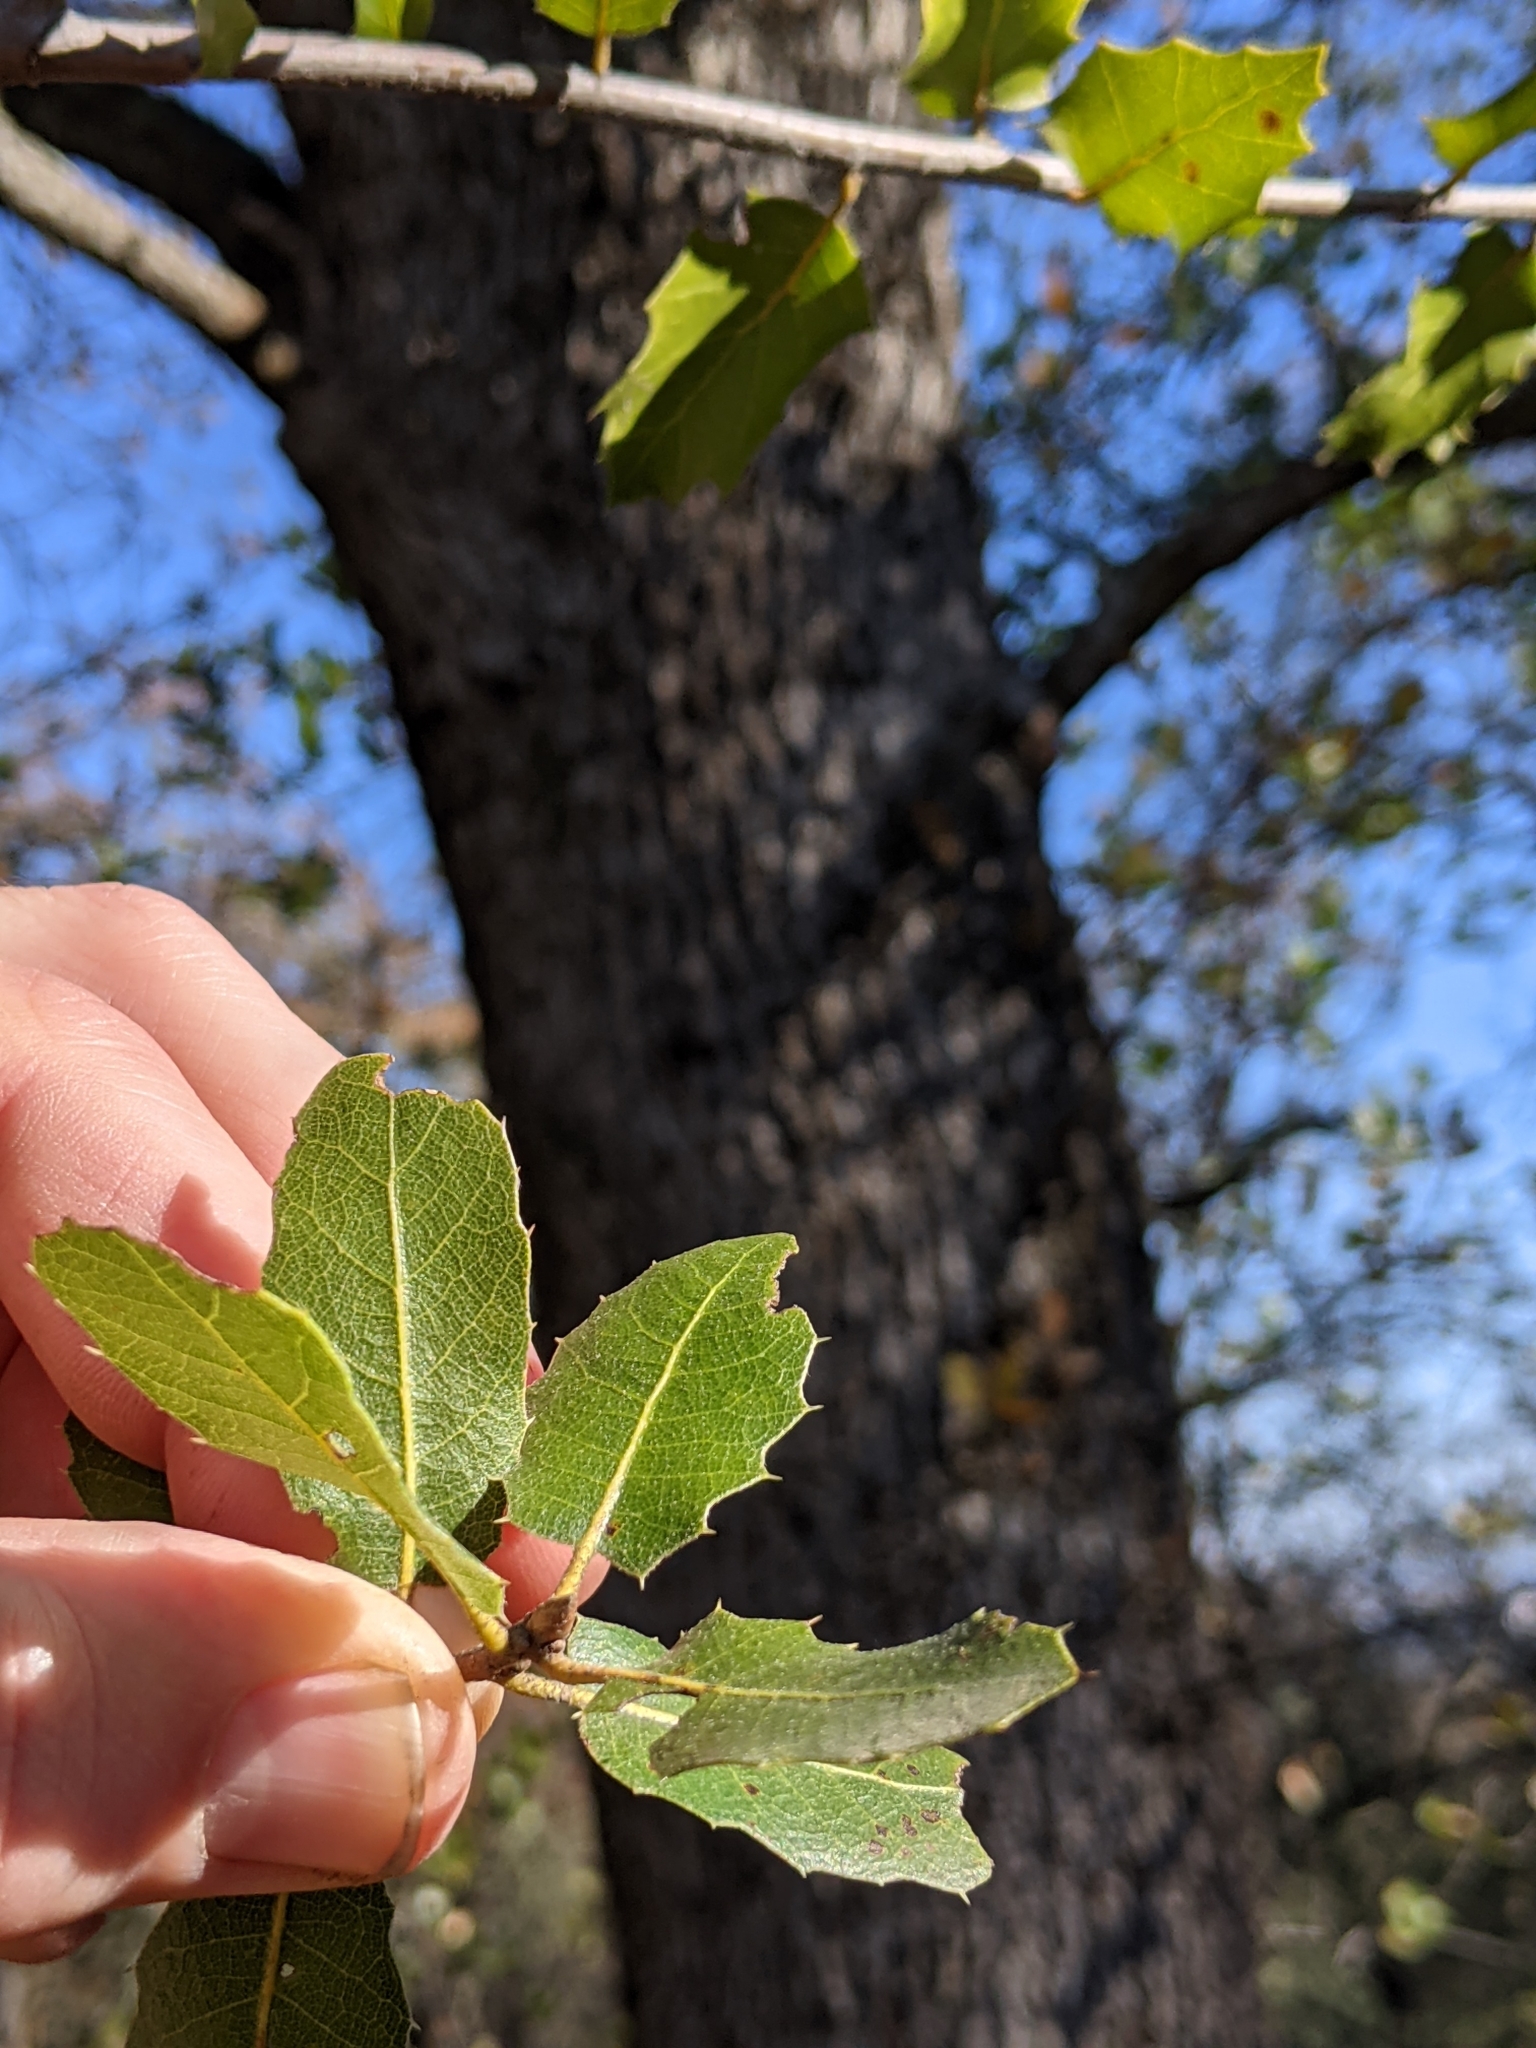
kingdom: Plantae
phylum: Tracheophyta
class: Magnoliopsida
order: Fagales
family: Fagaceae
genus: Quercus
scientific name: Quercus wislizeni
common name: Interior live oak
